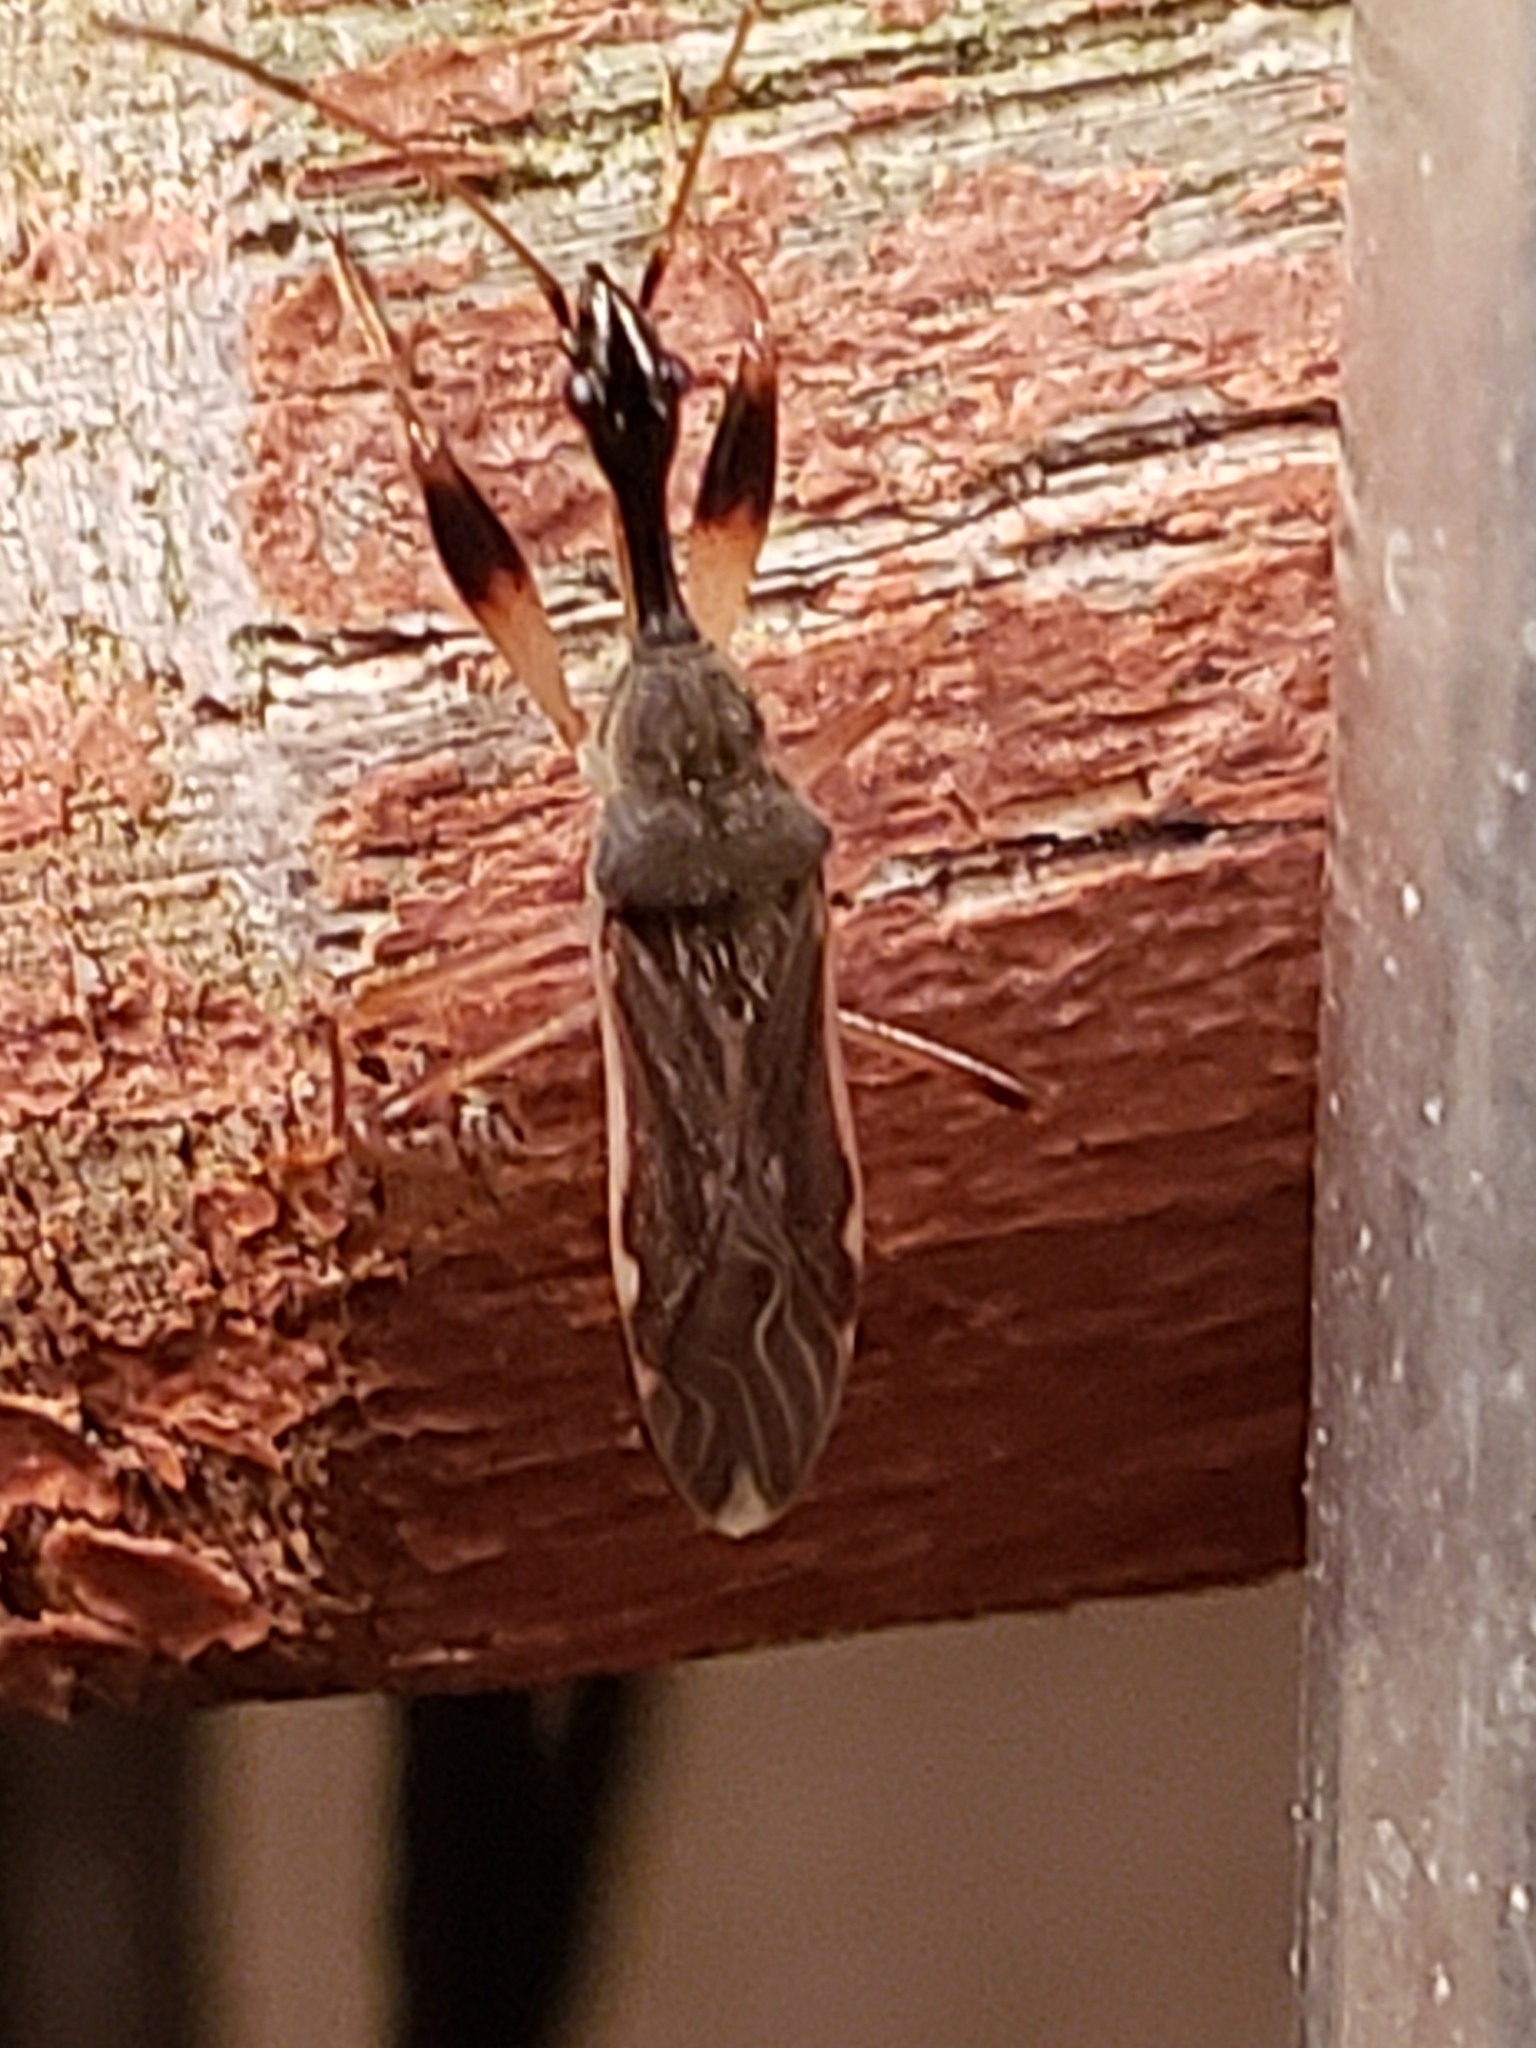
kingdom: Animalia
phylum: Arthropoda
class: Insecta
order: Hemiptera
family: Rhyparochromidae
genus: Myodocha
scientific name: Myodocha serripes
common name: Long-necked seed bug
